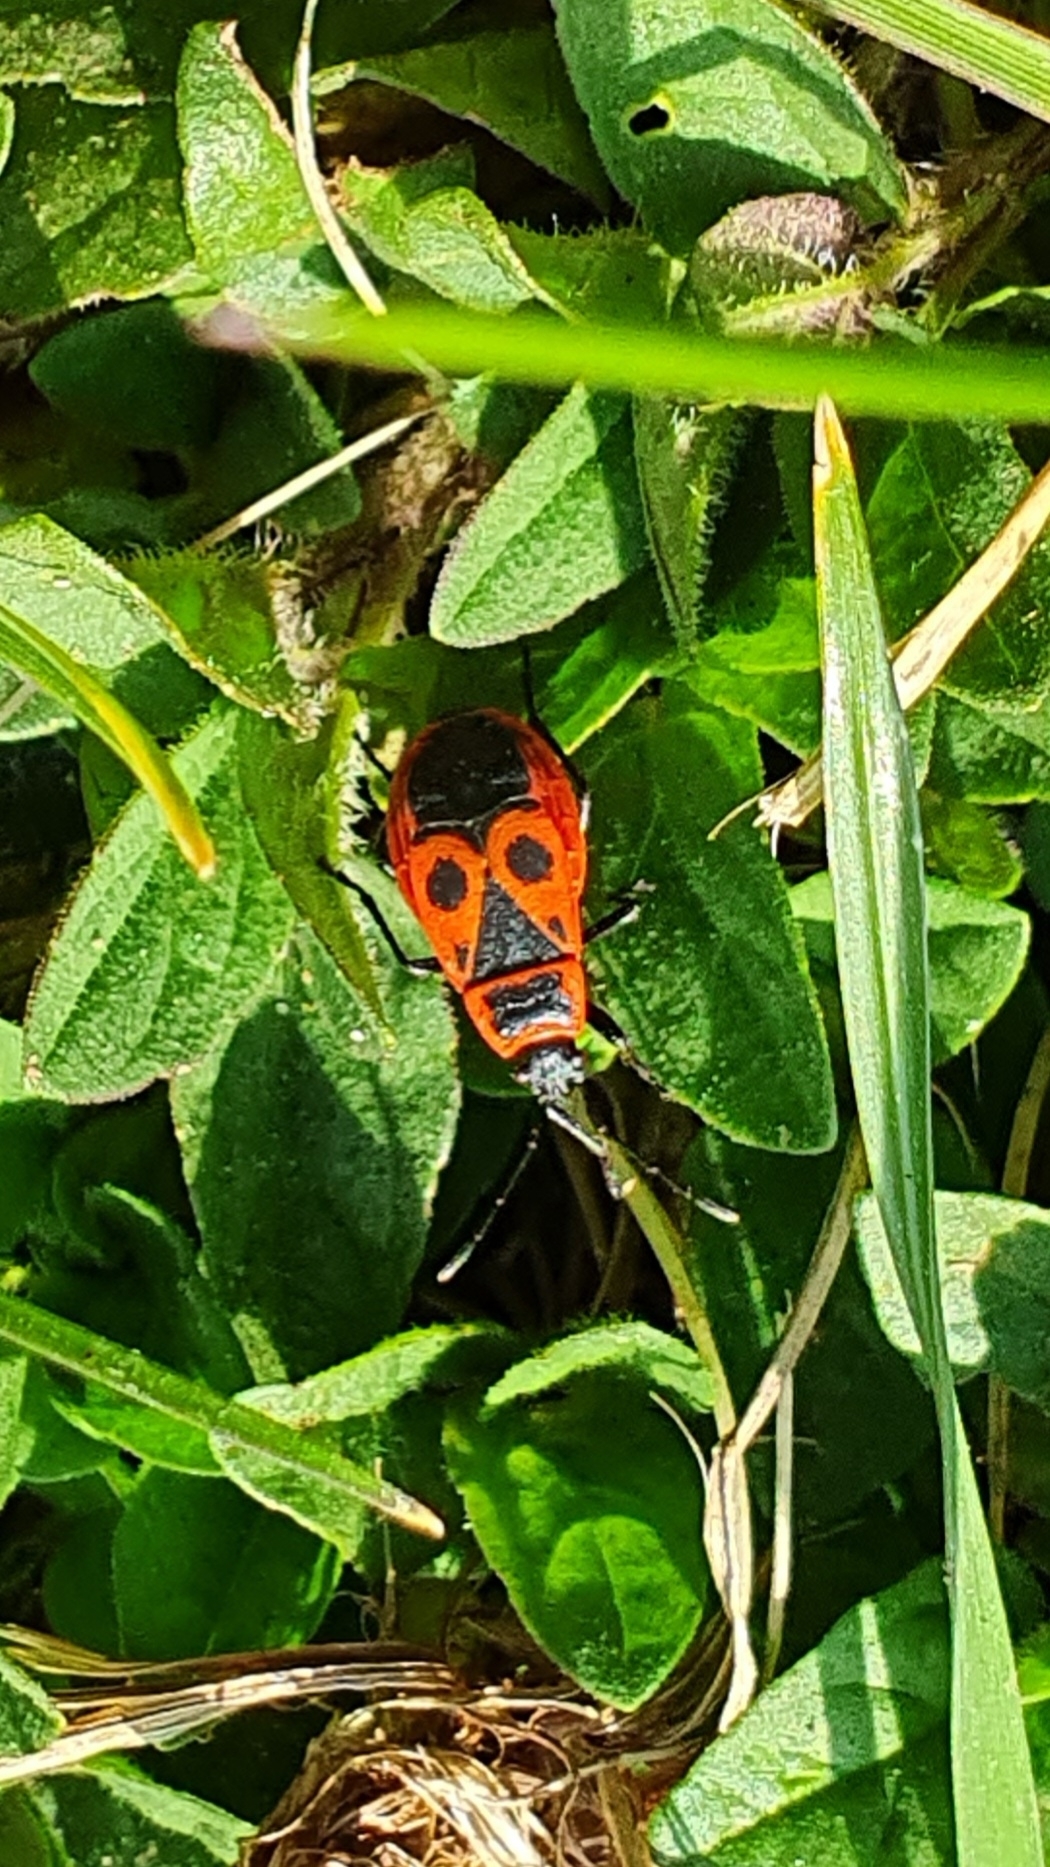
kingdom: Animalia
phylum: Arthropoda
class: Insecta
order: Hemiptera
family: Pyrrhocoridae
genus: Pyrrhocoris
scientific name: Pyrrhocoris apterus
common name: Firebug
